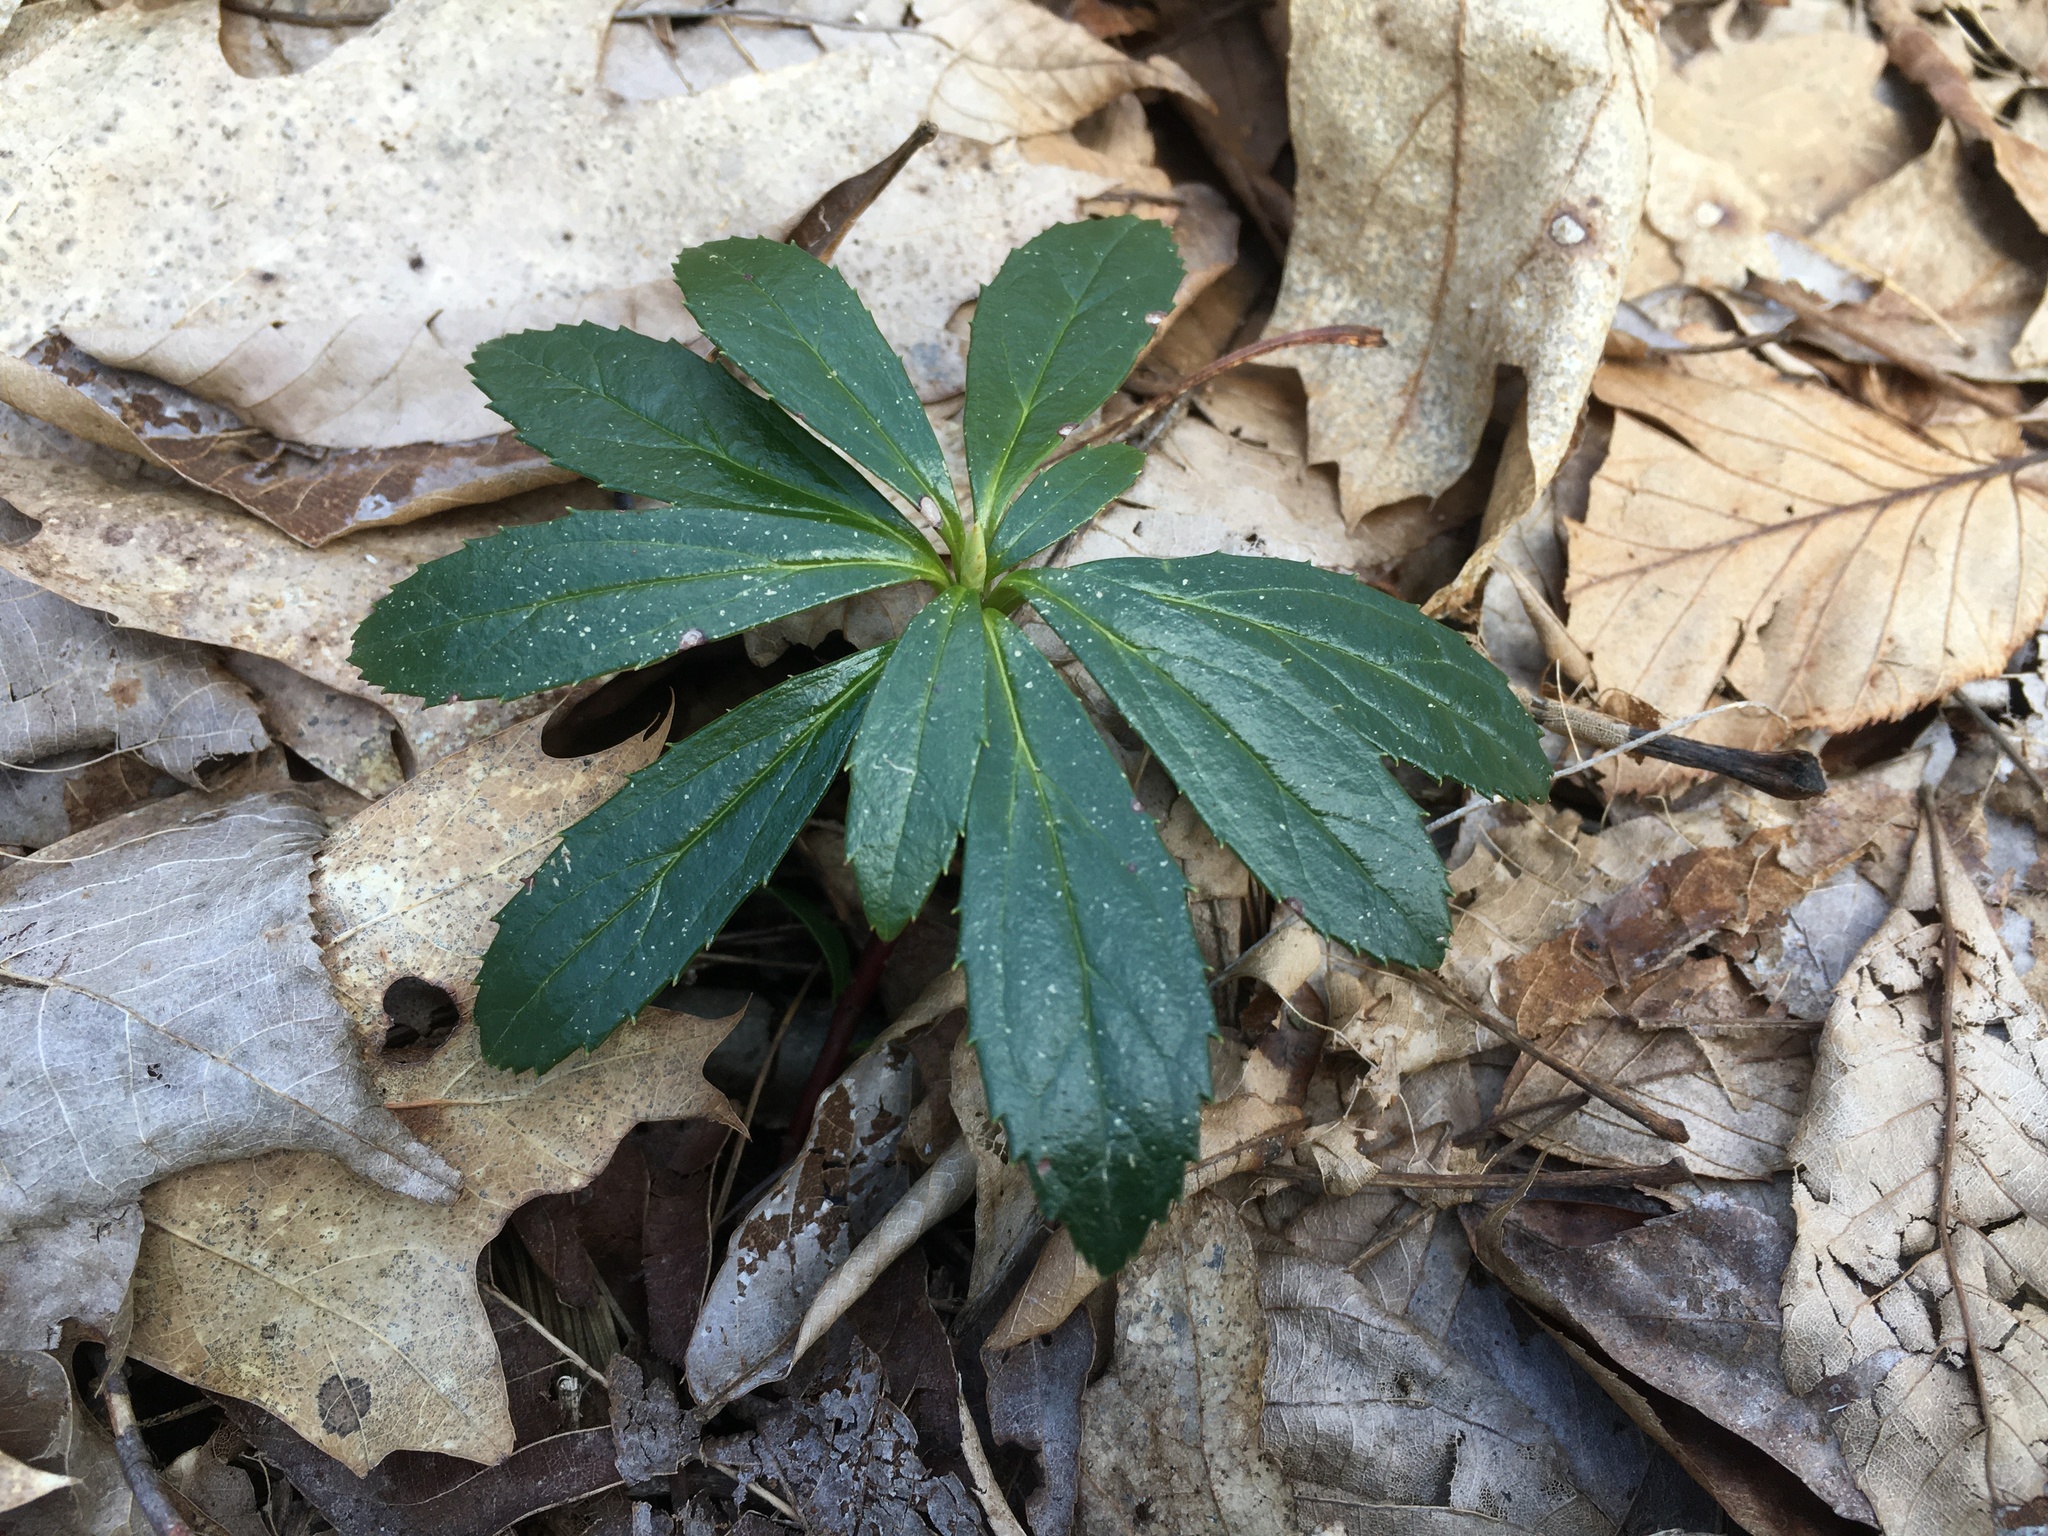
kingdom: Plantae
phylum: Tracheophyta
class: Magnoliopsida
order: Ericales
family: Ericaceae
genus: Chimaphila
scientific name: Chimaphila umbellata
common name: Pipsissewa
